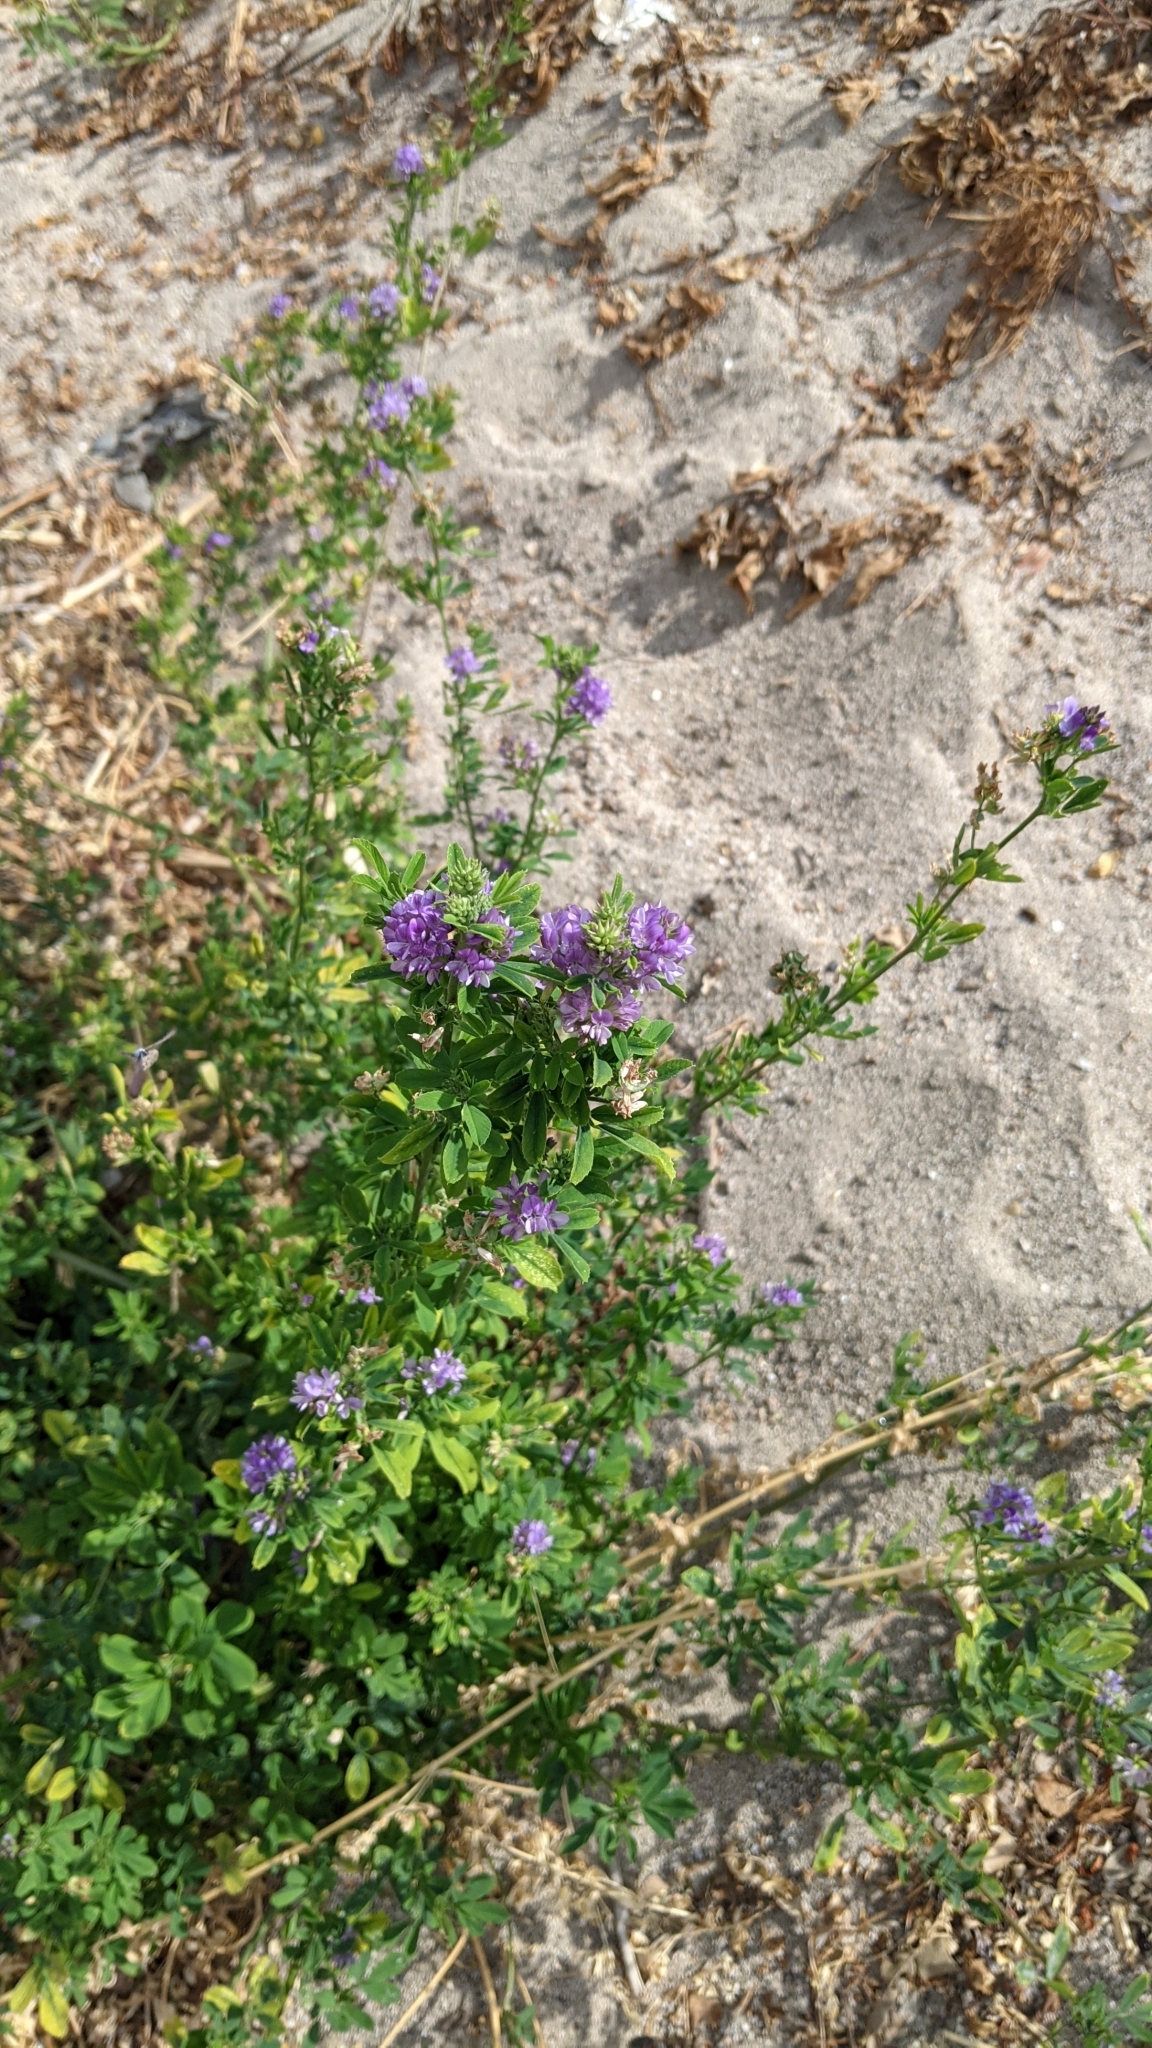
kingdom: Plantae
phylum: Tracheophyta
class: Magnoliopsida
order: Fabales
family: Fabaceae
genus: Medicago
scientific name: Medicago sativa
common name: Alfalfa
